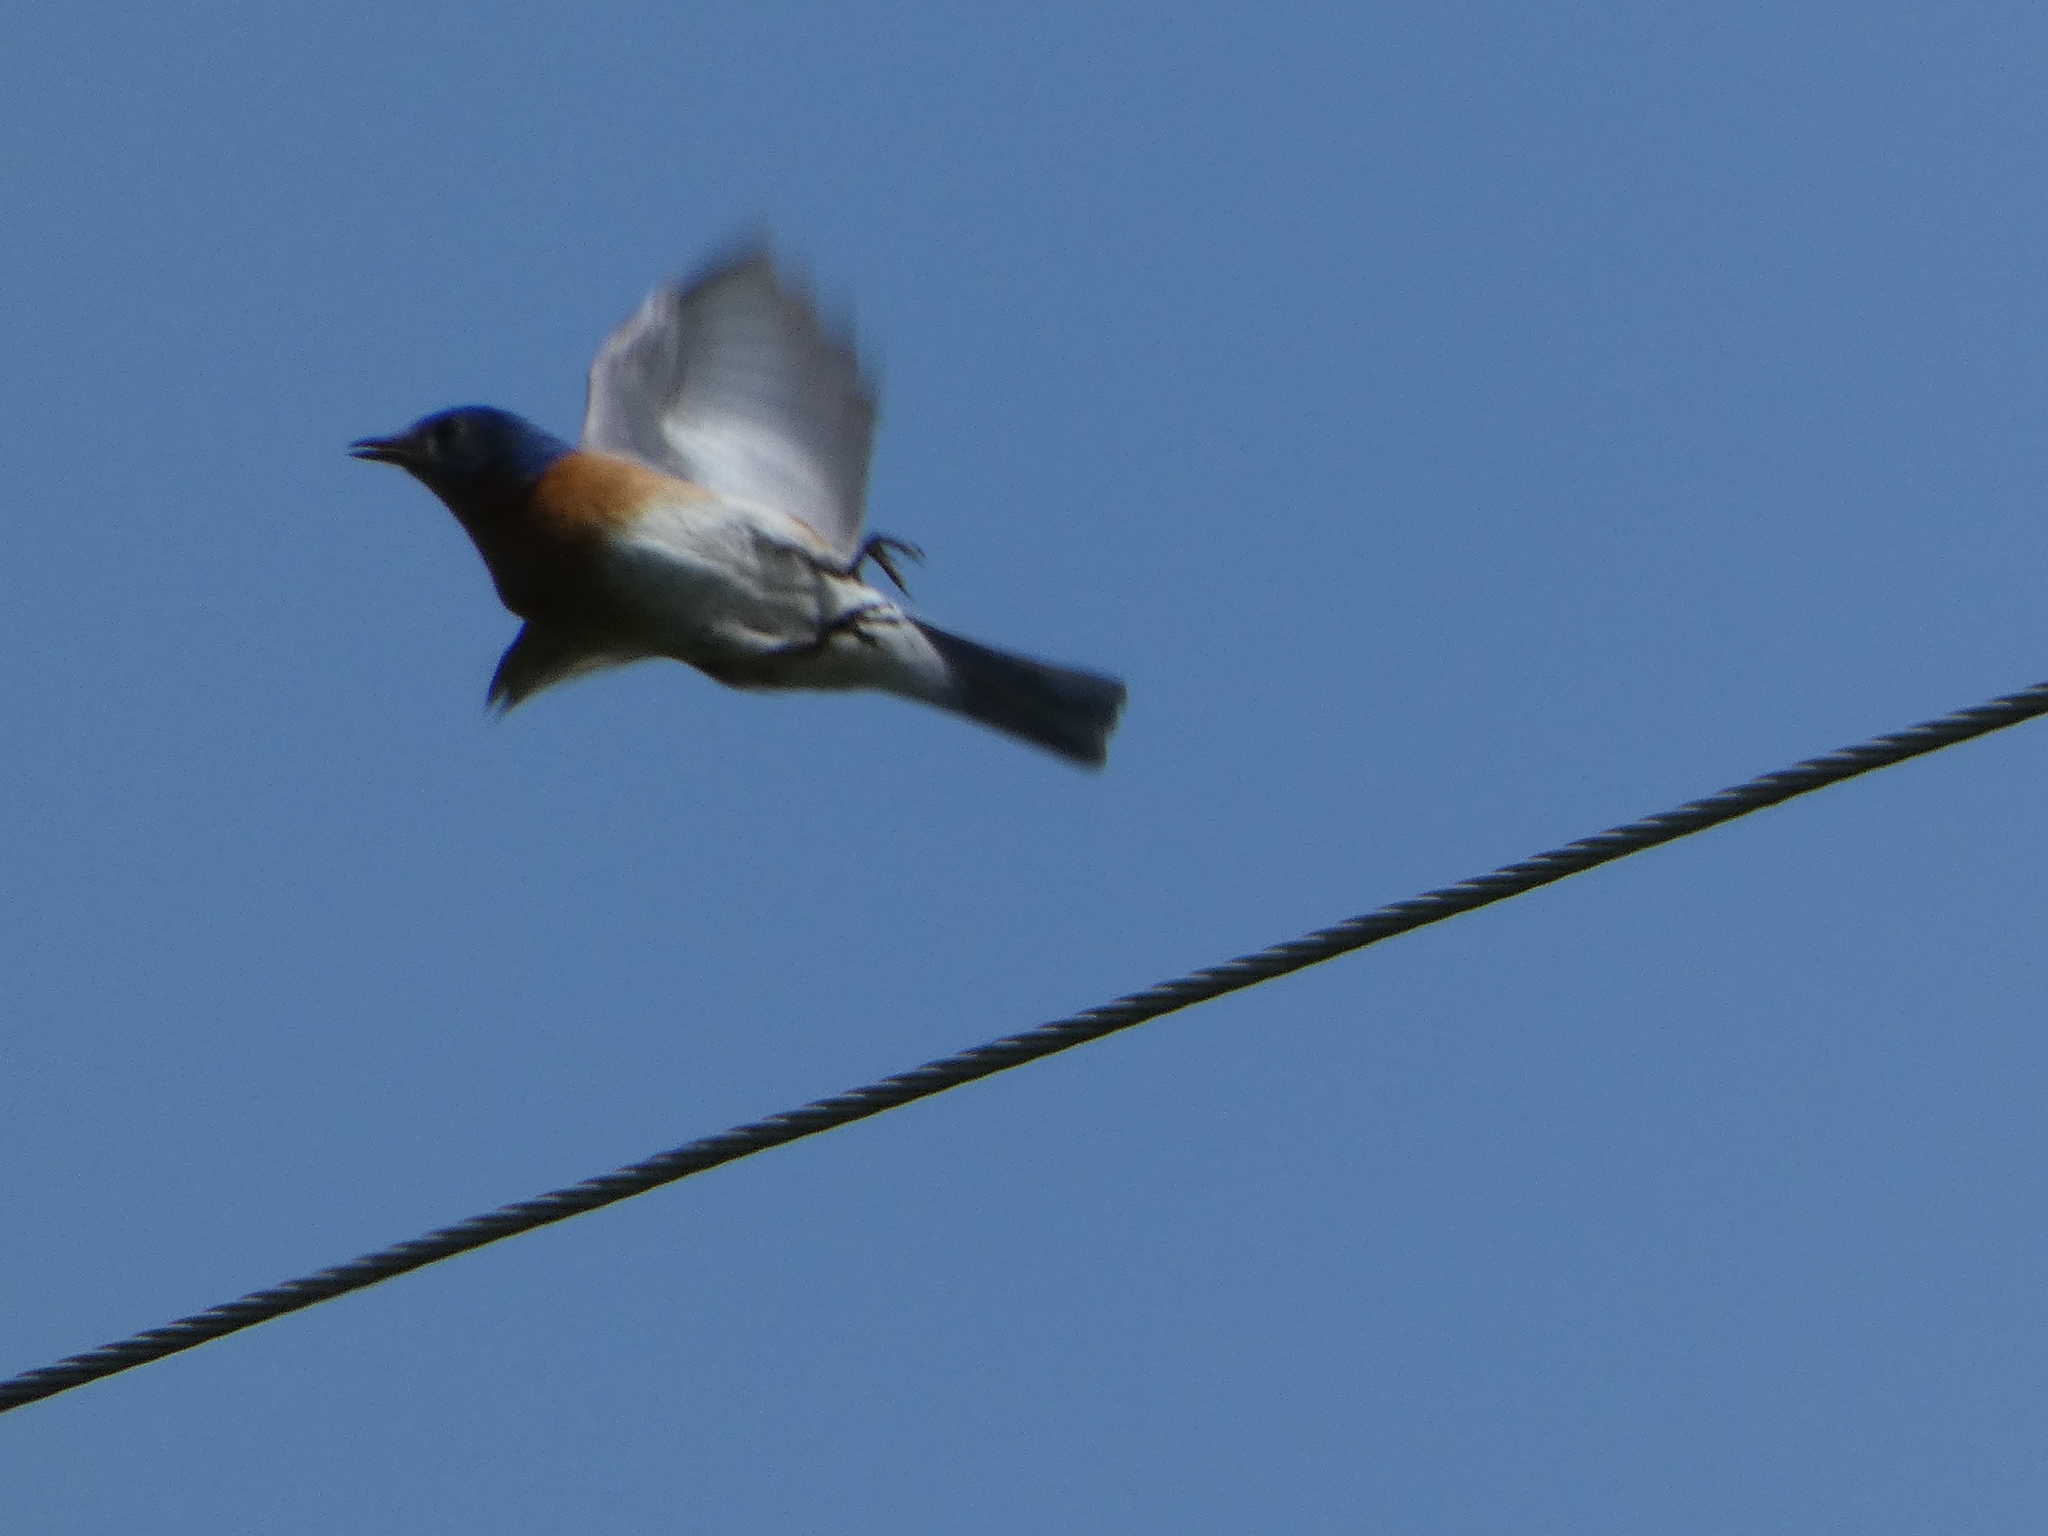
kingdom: Animalia
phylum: Chordata
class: Aves
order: Passeriformes
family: Turdidae
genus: Sialia
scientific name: Sialia sialis
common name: Eastern bluebird
